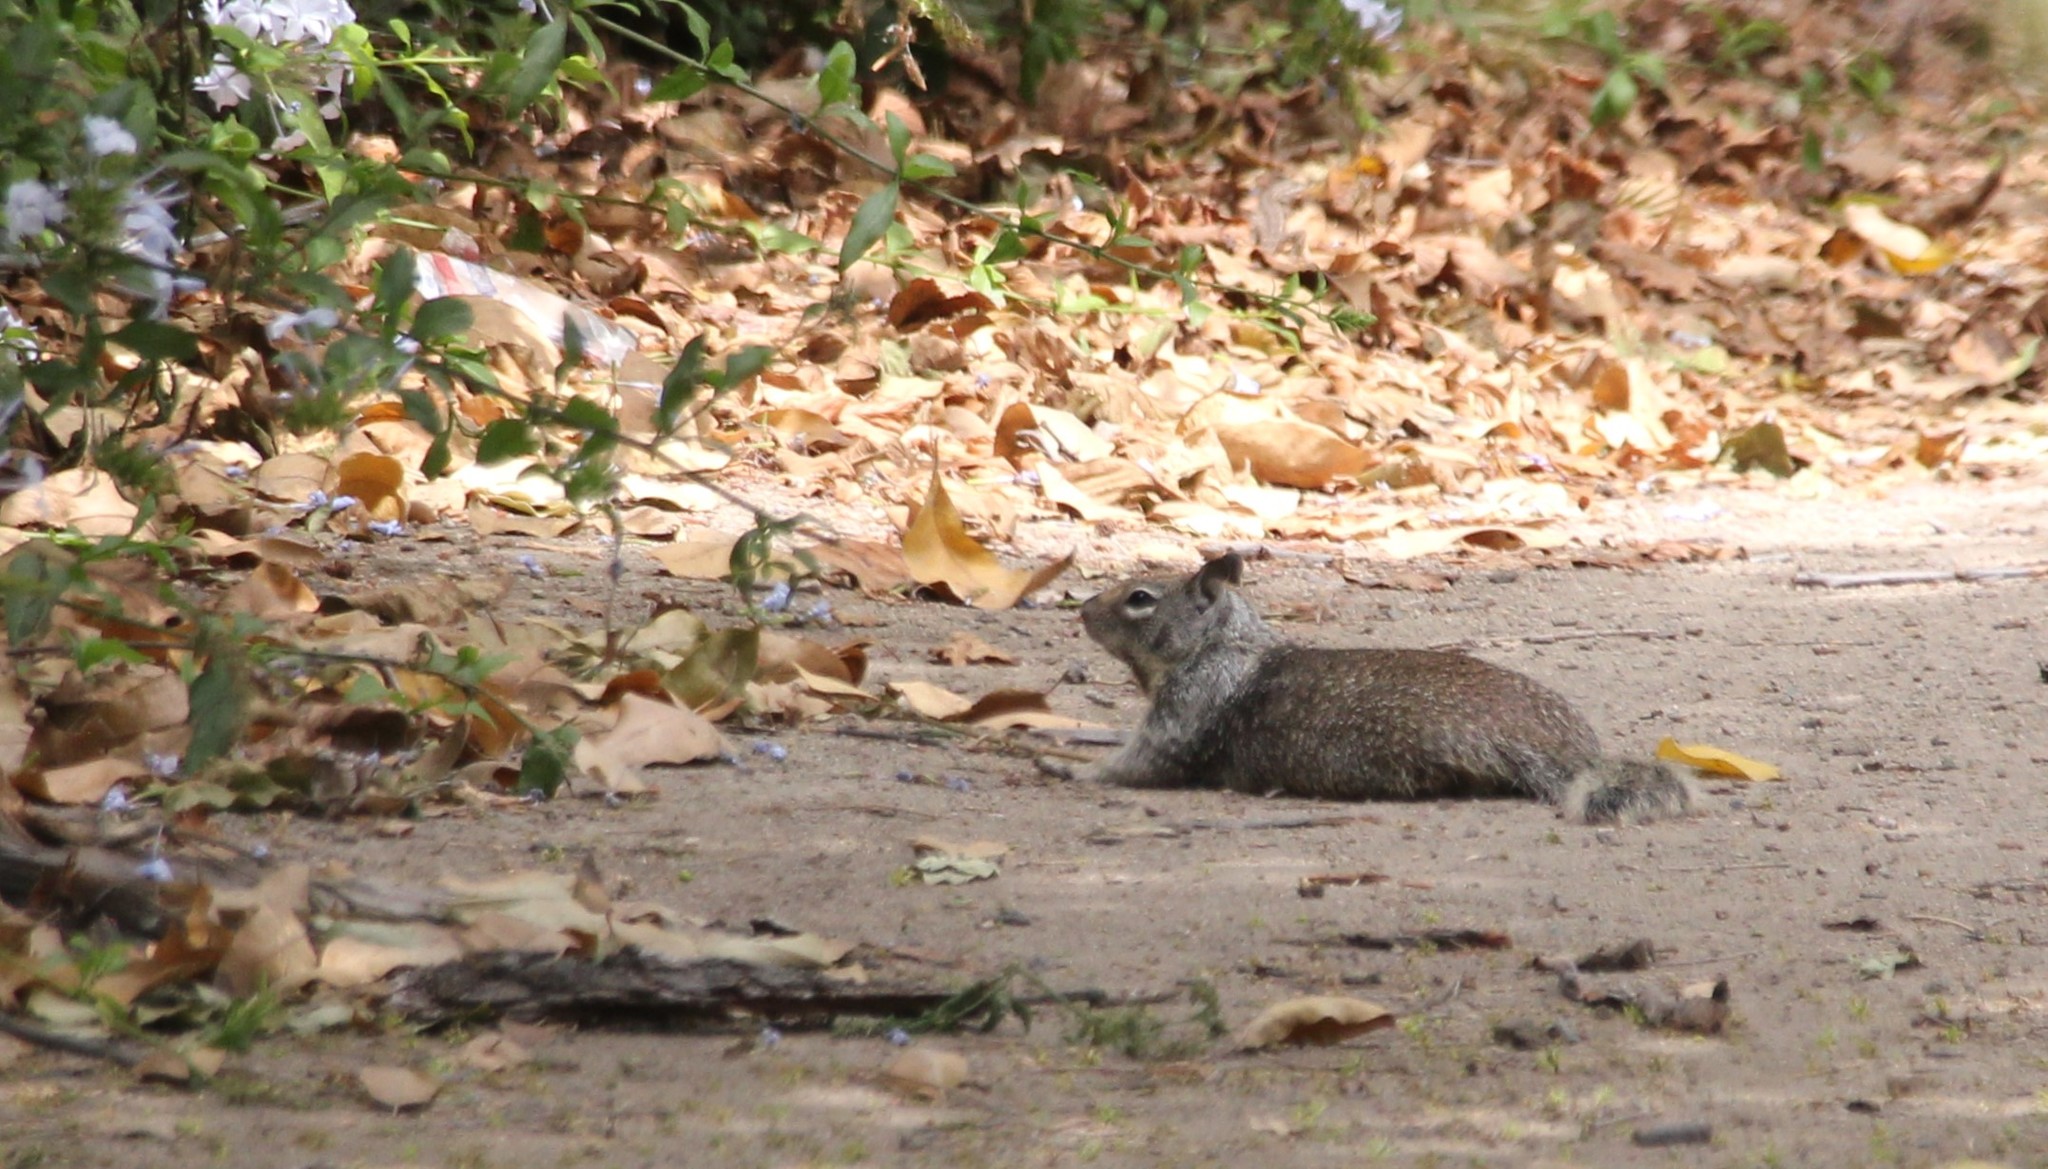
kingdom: Animalia
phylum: Chordata
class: Mammalia
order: Rodentia
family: Sciuridae
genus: Otospermophilus
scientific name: Otospermophilus beecheyi
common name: California ground squirrel
